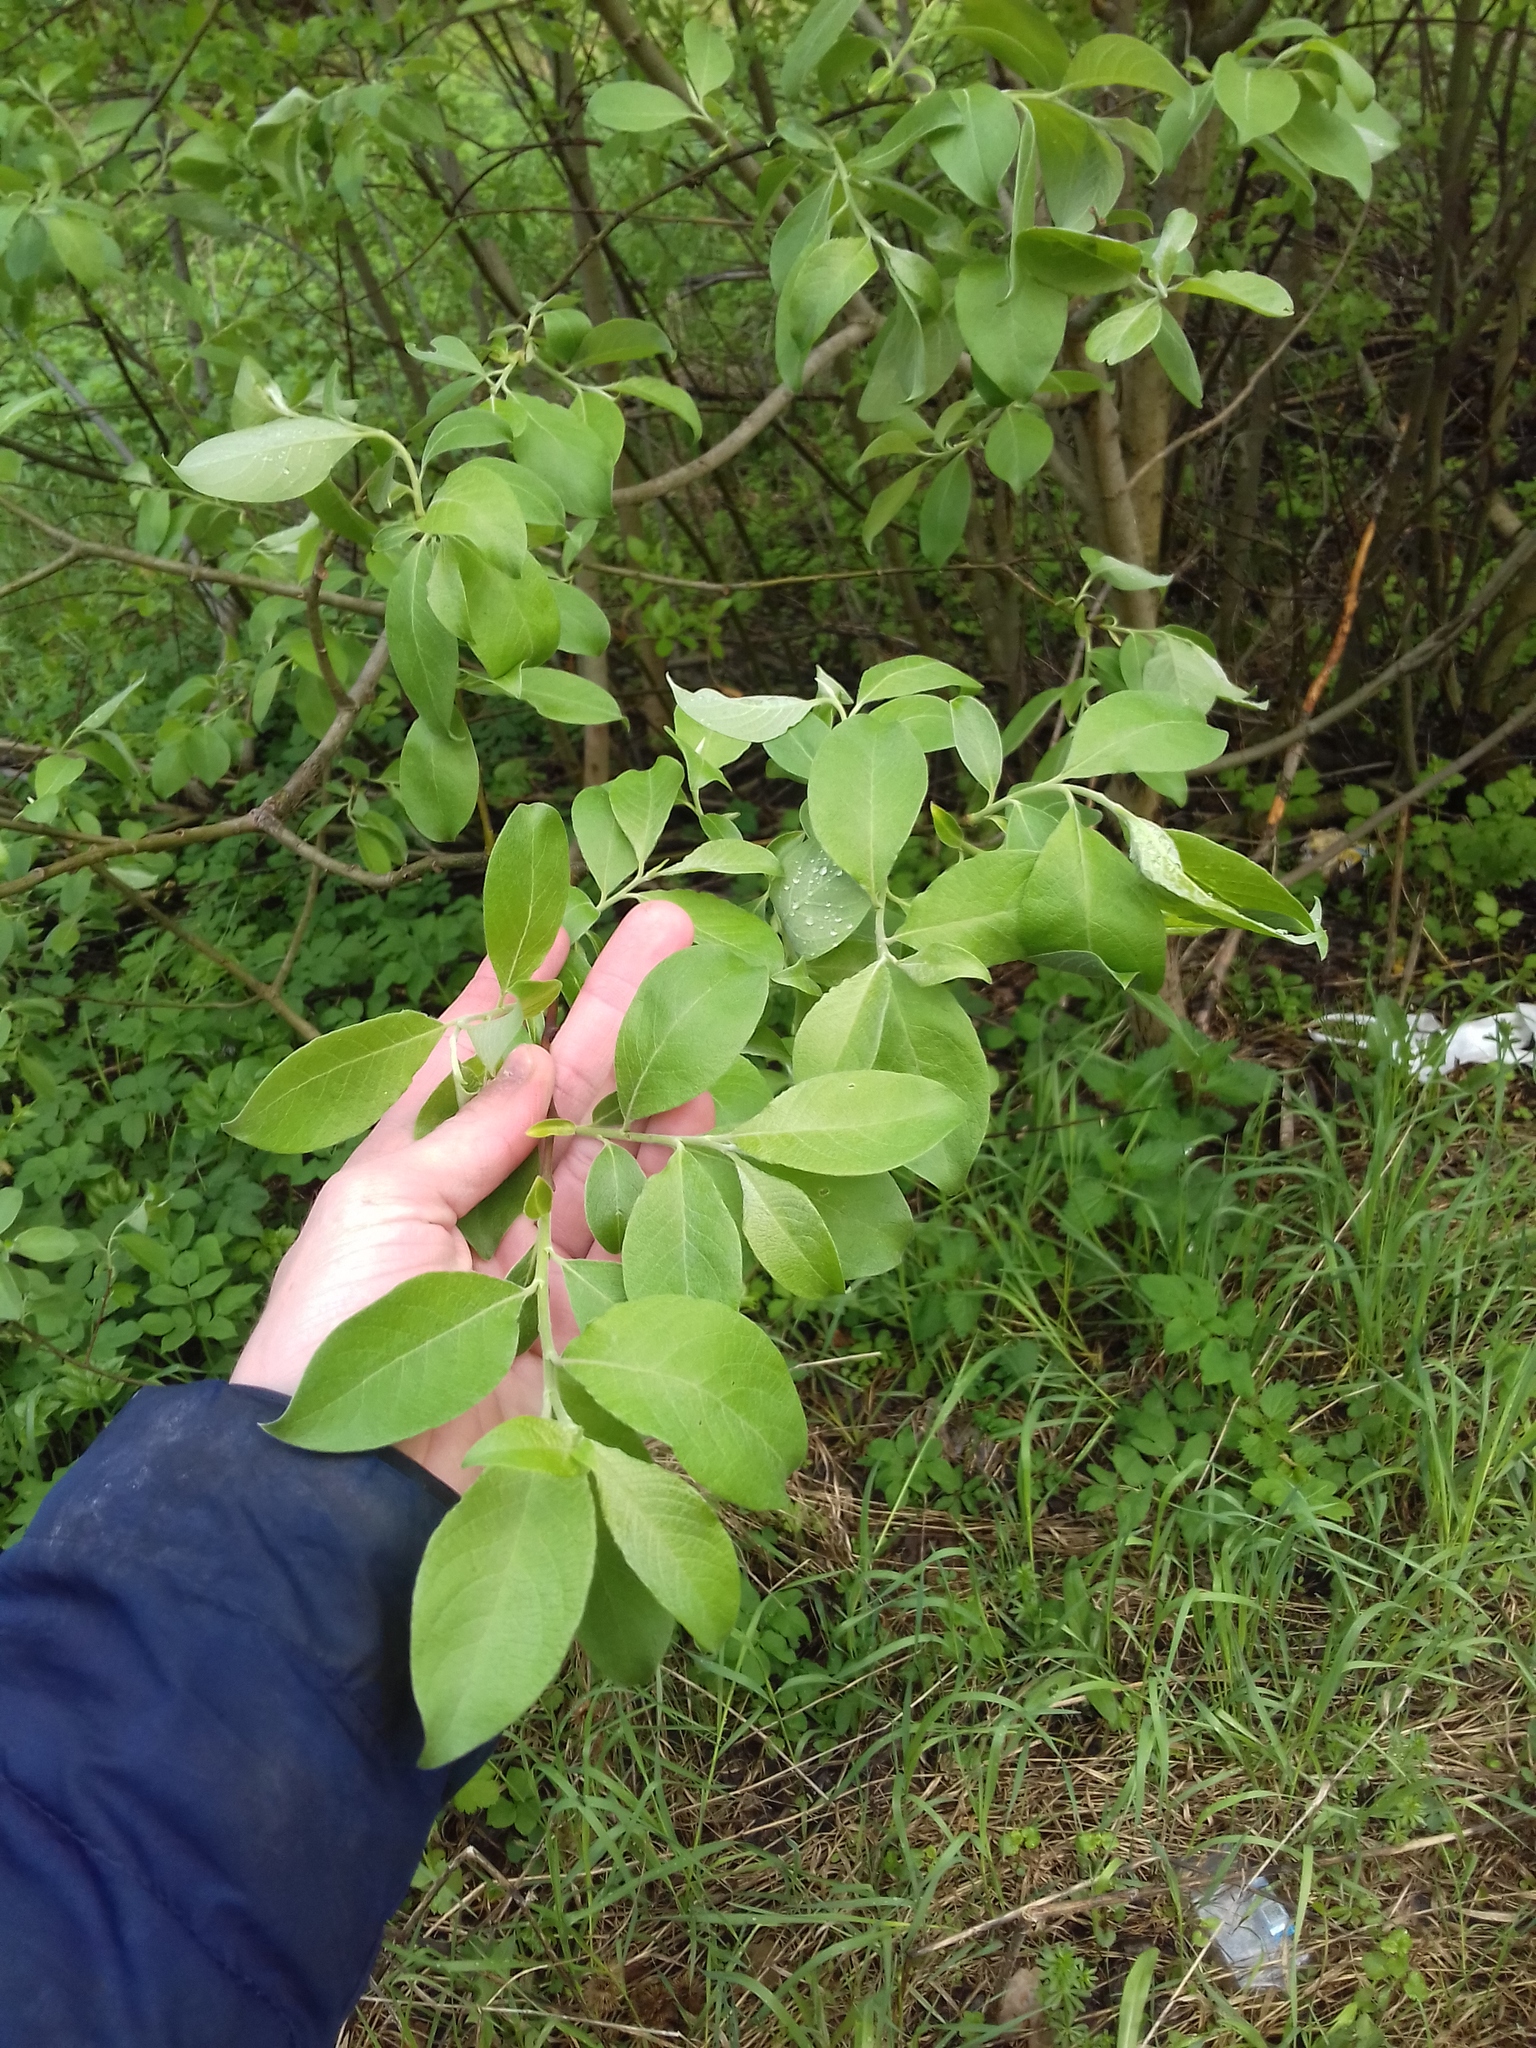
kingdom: Plantae
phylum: Tracheophyta
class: Magnoliopsida
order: Malpighiales
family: Salicaceae
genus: Salix
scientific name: Salix caprea
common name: Goat willow
